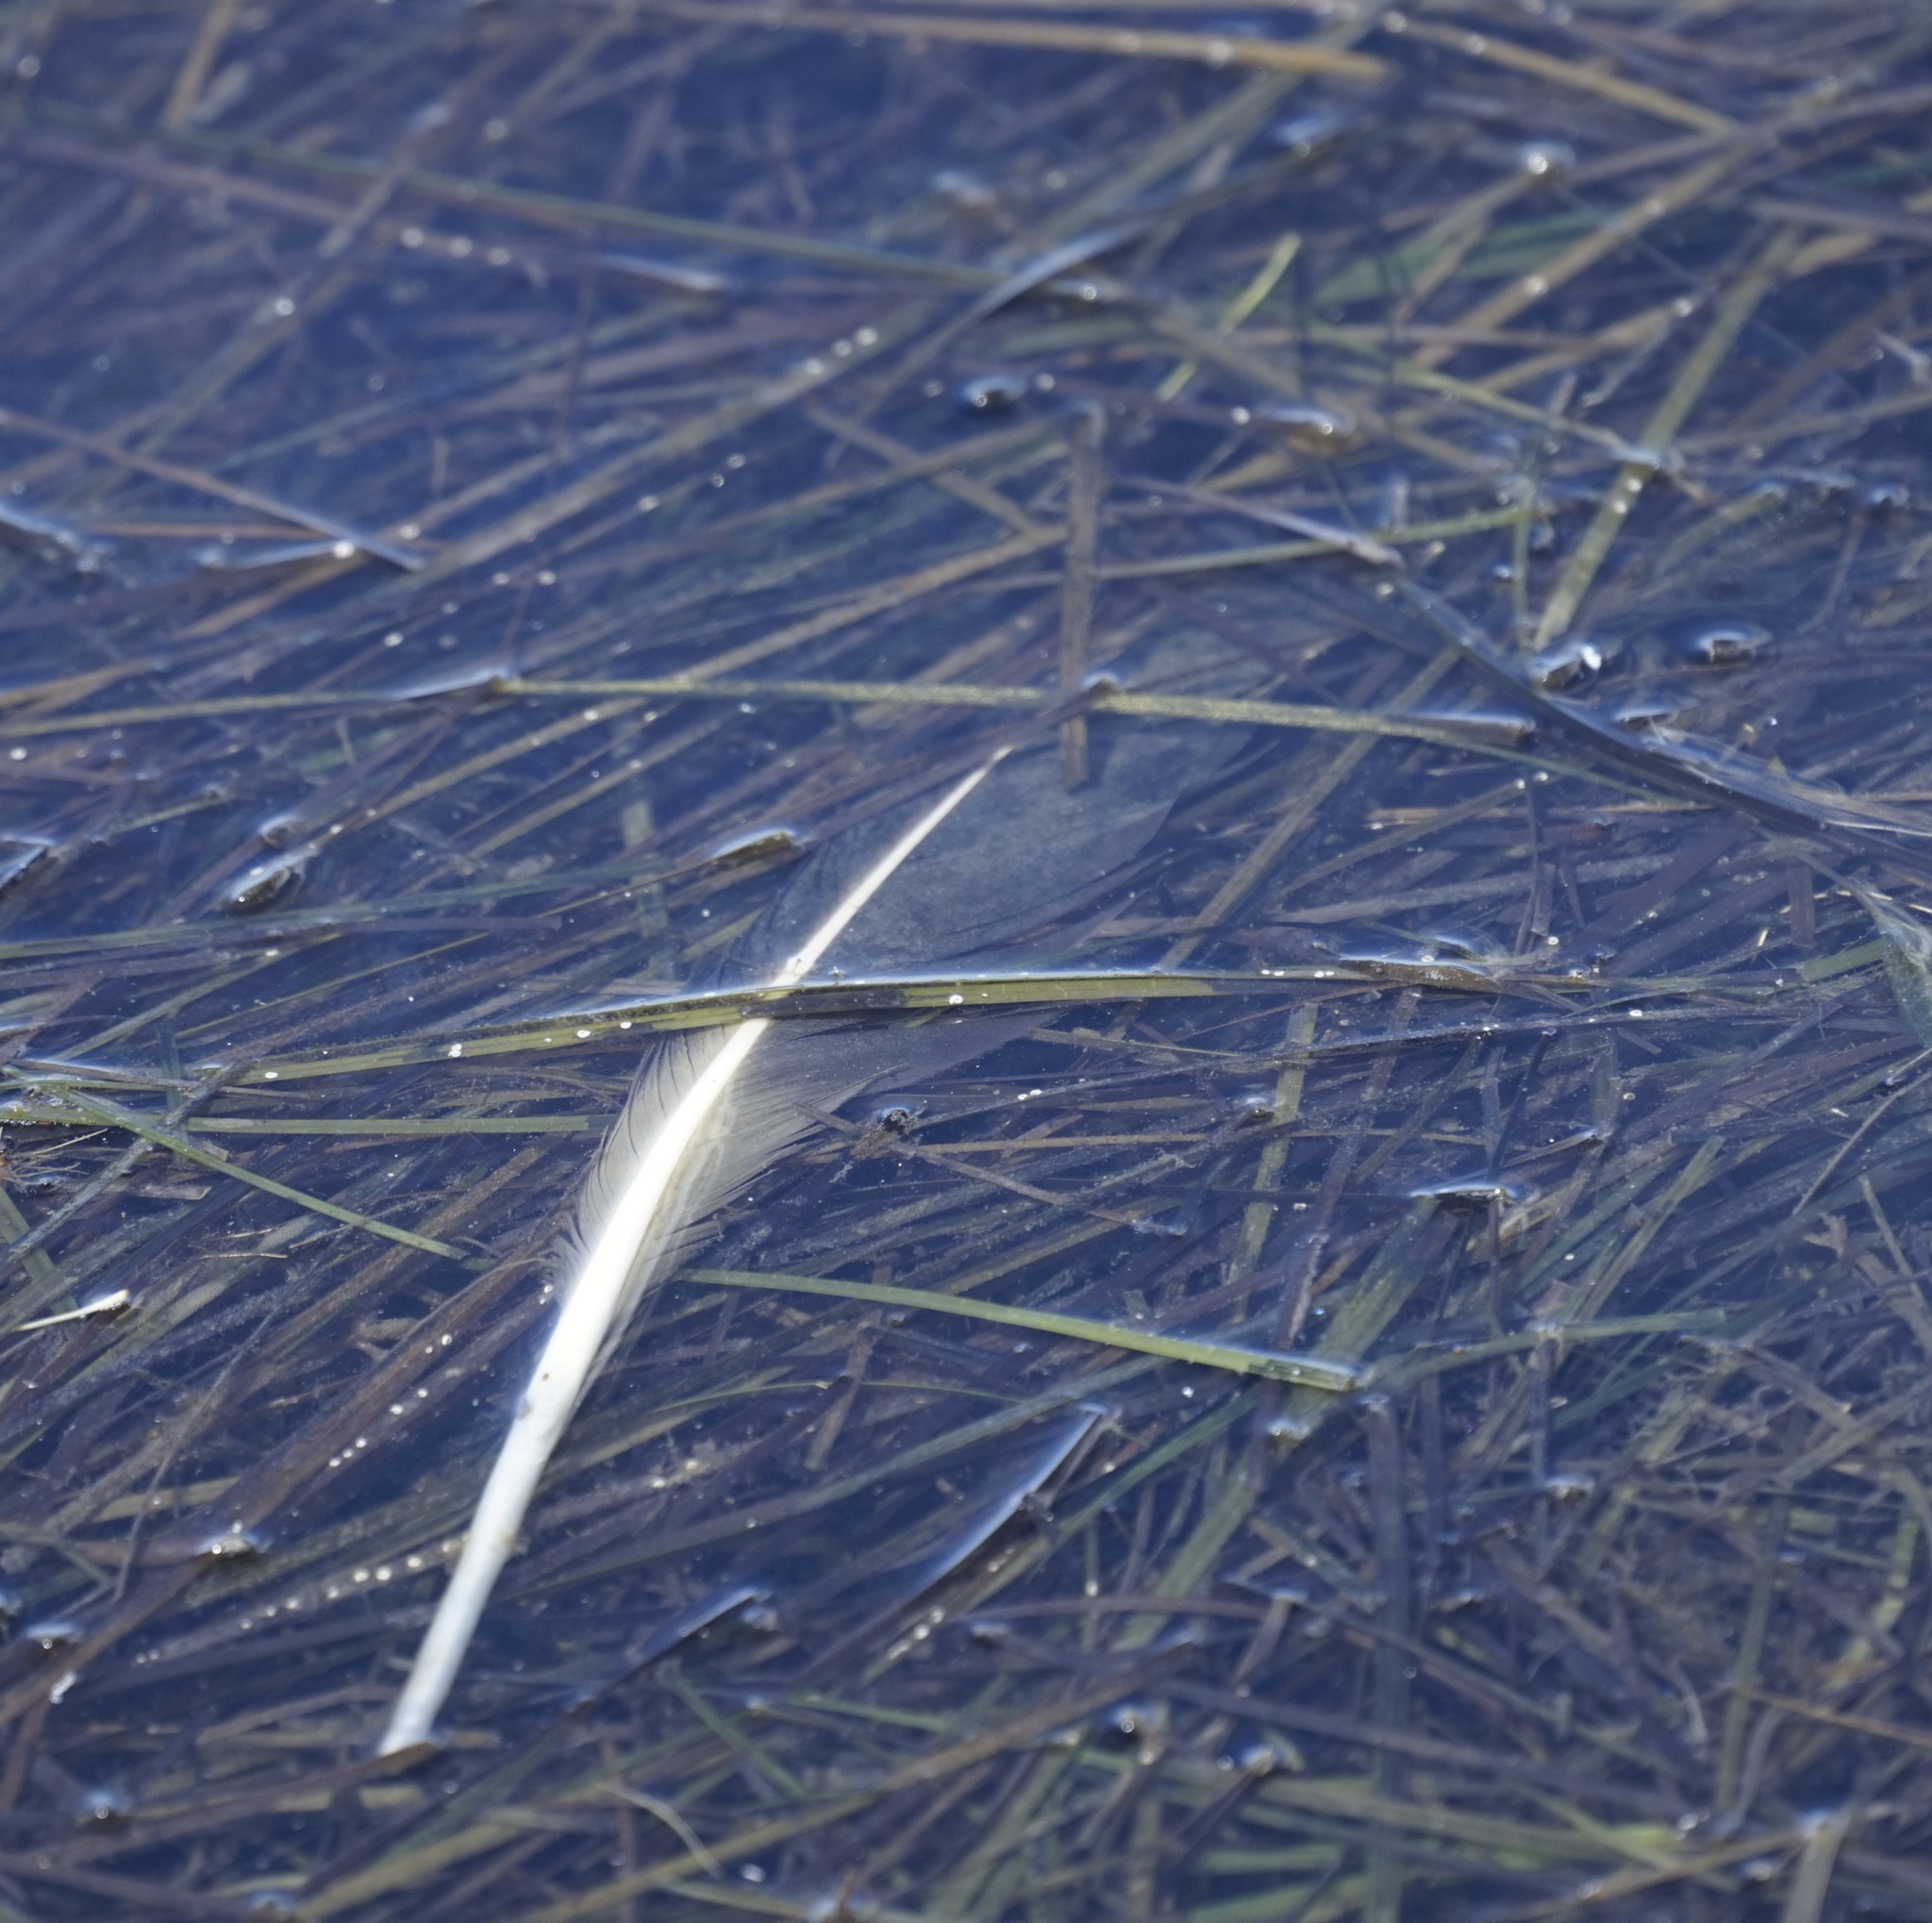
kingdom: Animalia
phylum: Chordata
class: Aves
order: Pelecaniformes
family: Pelecanidae
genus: Pelecanus
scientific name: Pelecanus conspicillatus
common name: Australian pelican
